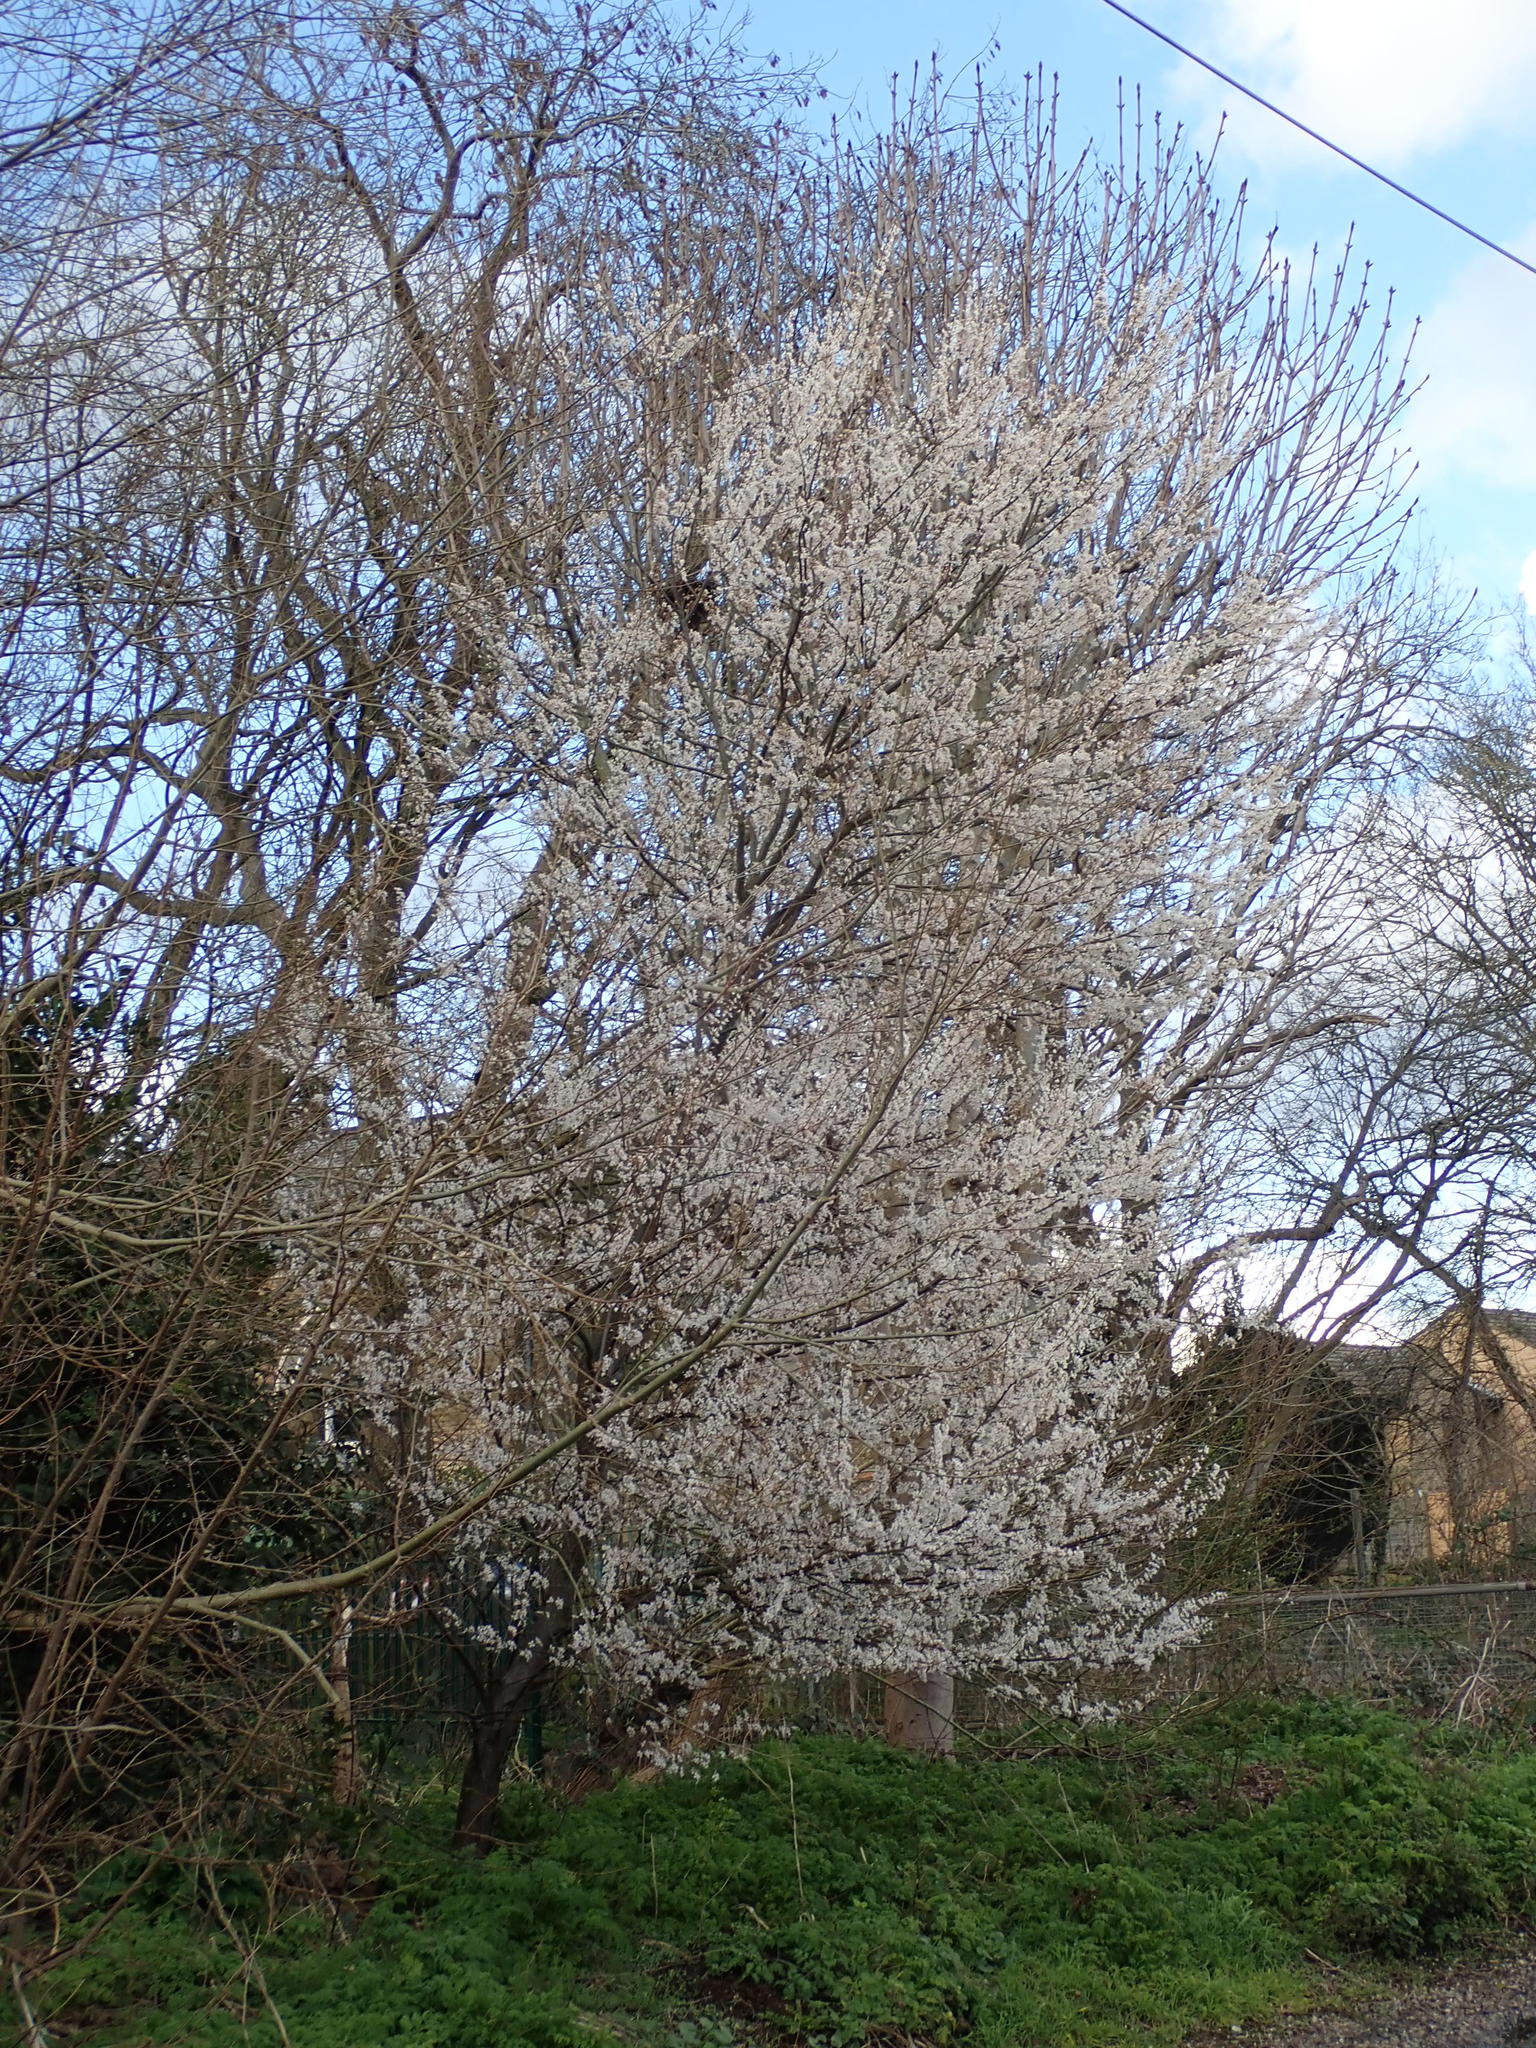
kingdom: Plantae
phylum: Tracheophyta
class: Magnoliopsida
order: Rosales
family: Rosaceae
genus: Prunus
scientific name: Prunus cerasifera
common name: Cherry plum
